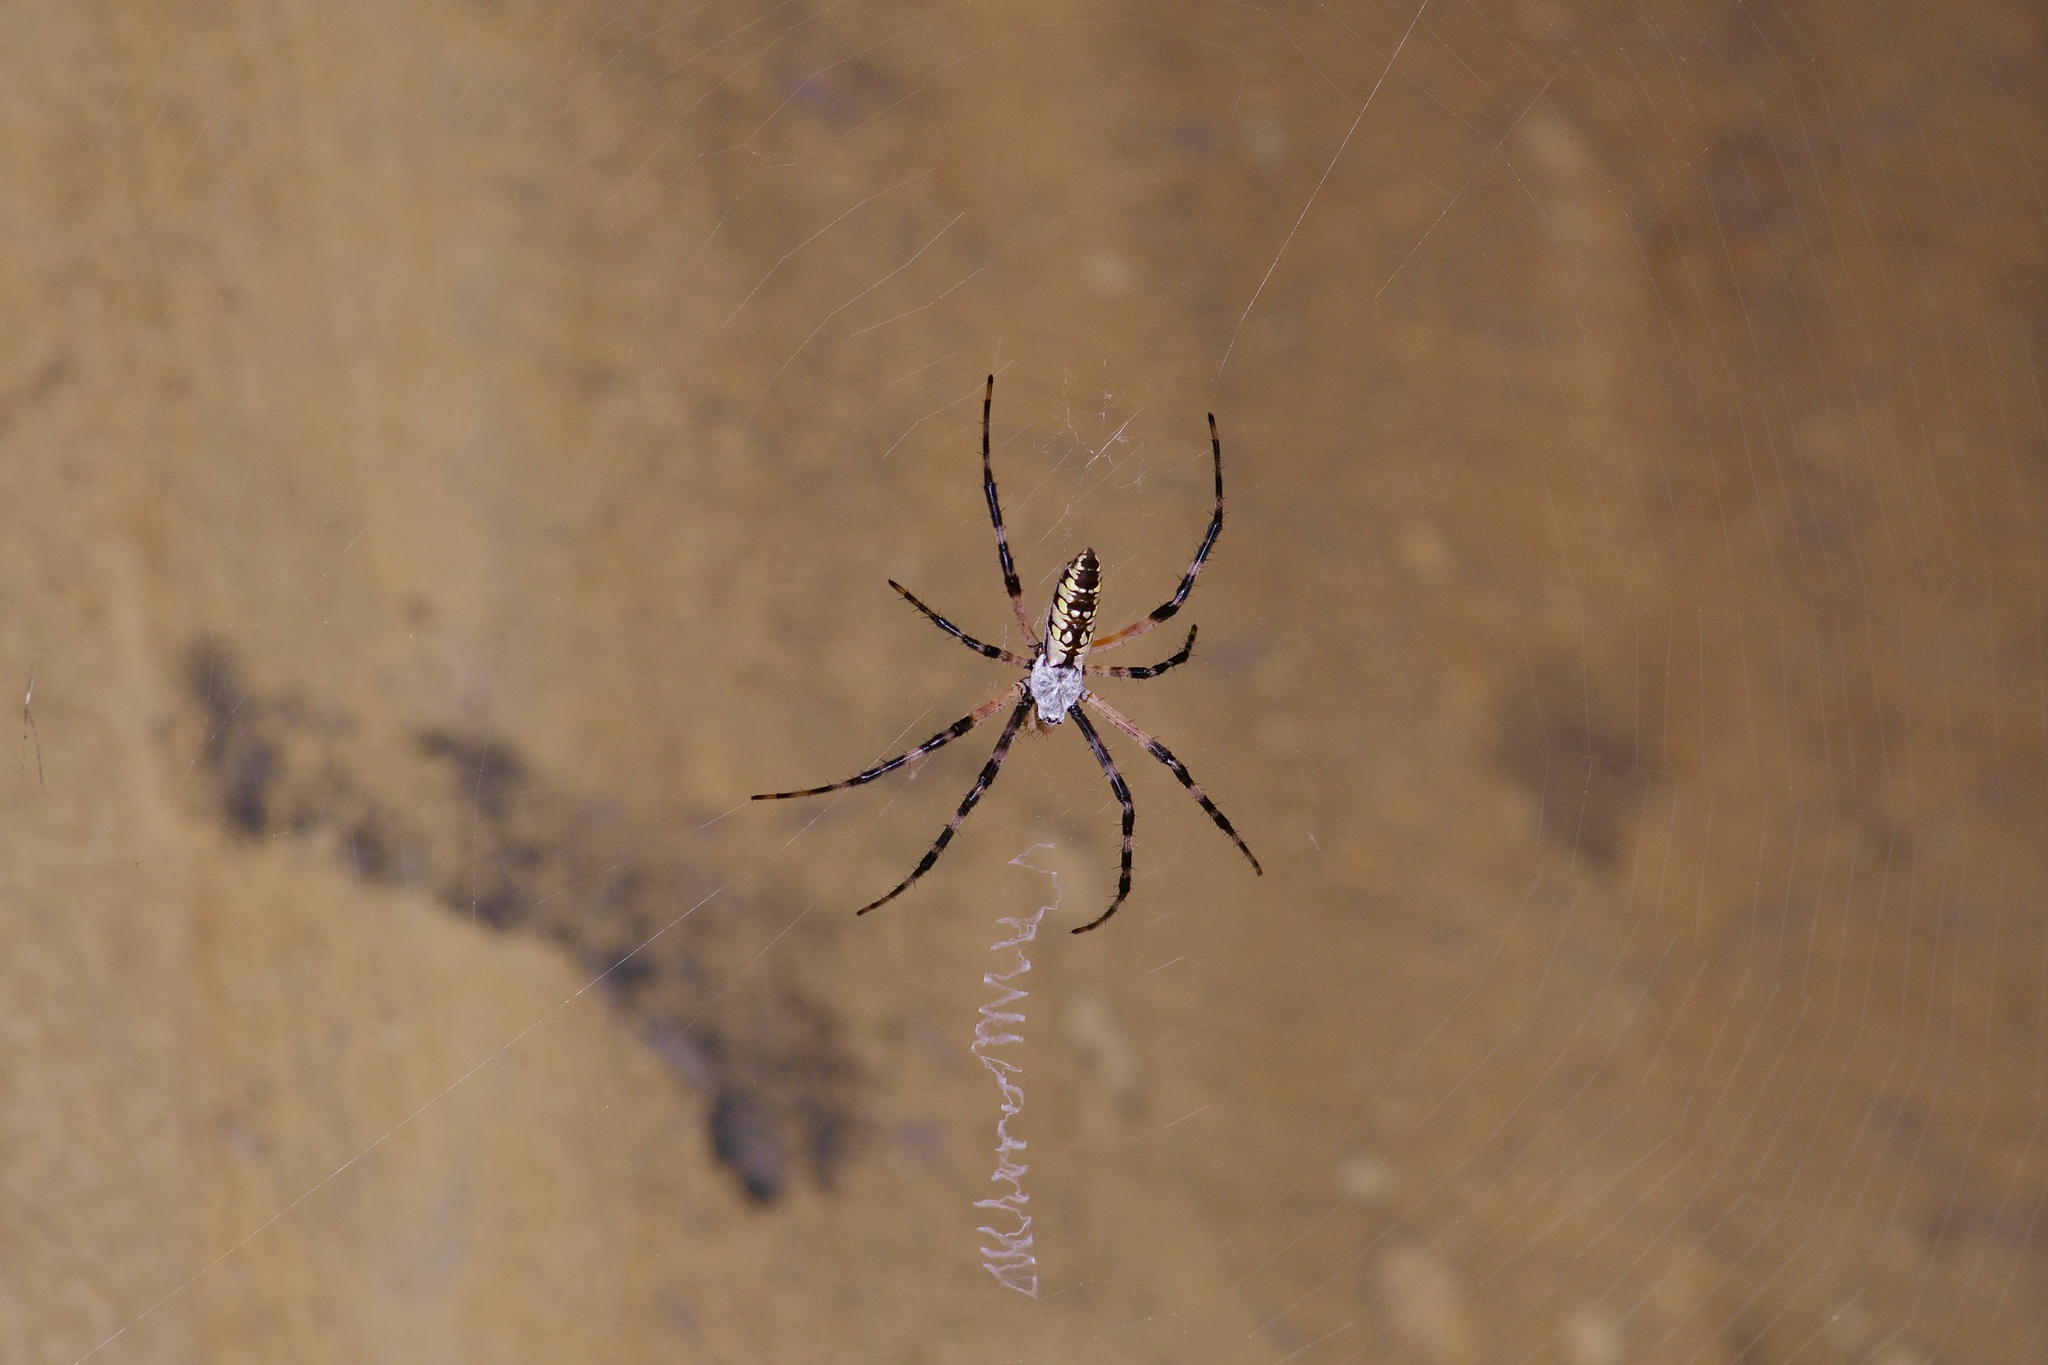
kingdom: Animalia
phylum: Arthropoda
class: Arachnida
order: Araneae
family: Araneidae
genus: Argiope
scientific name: Argiope aurantia
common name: Orb weavers
